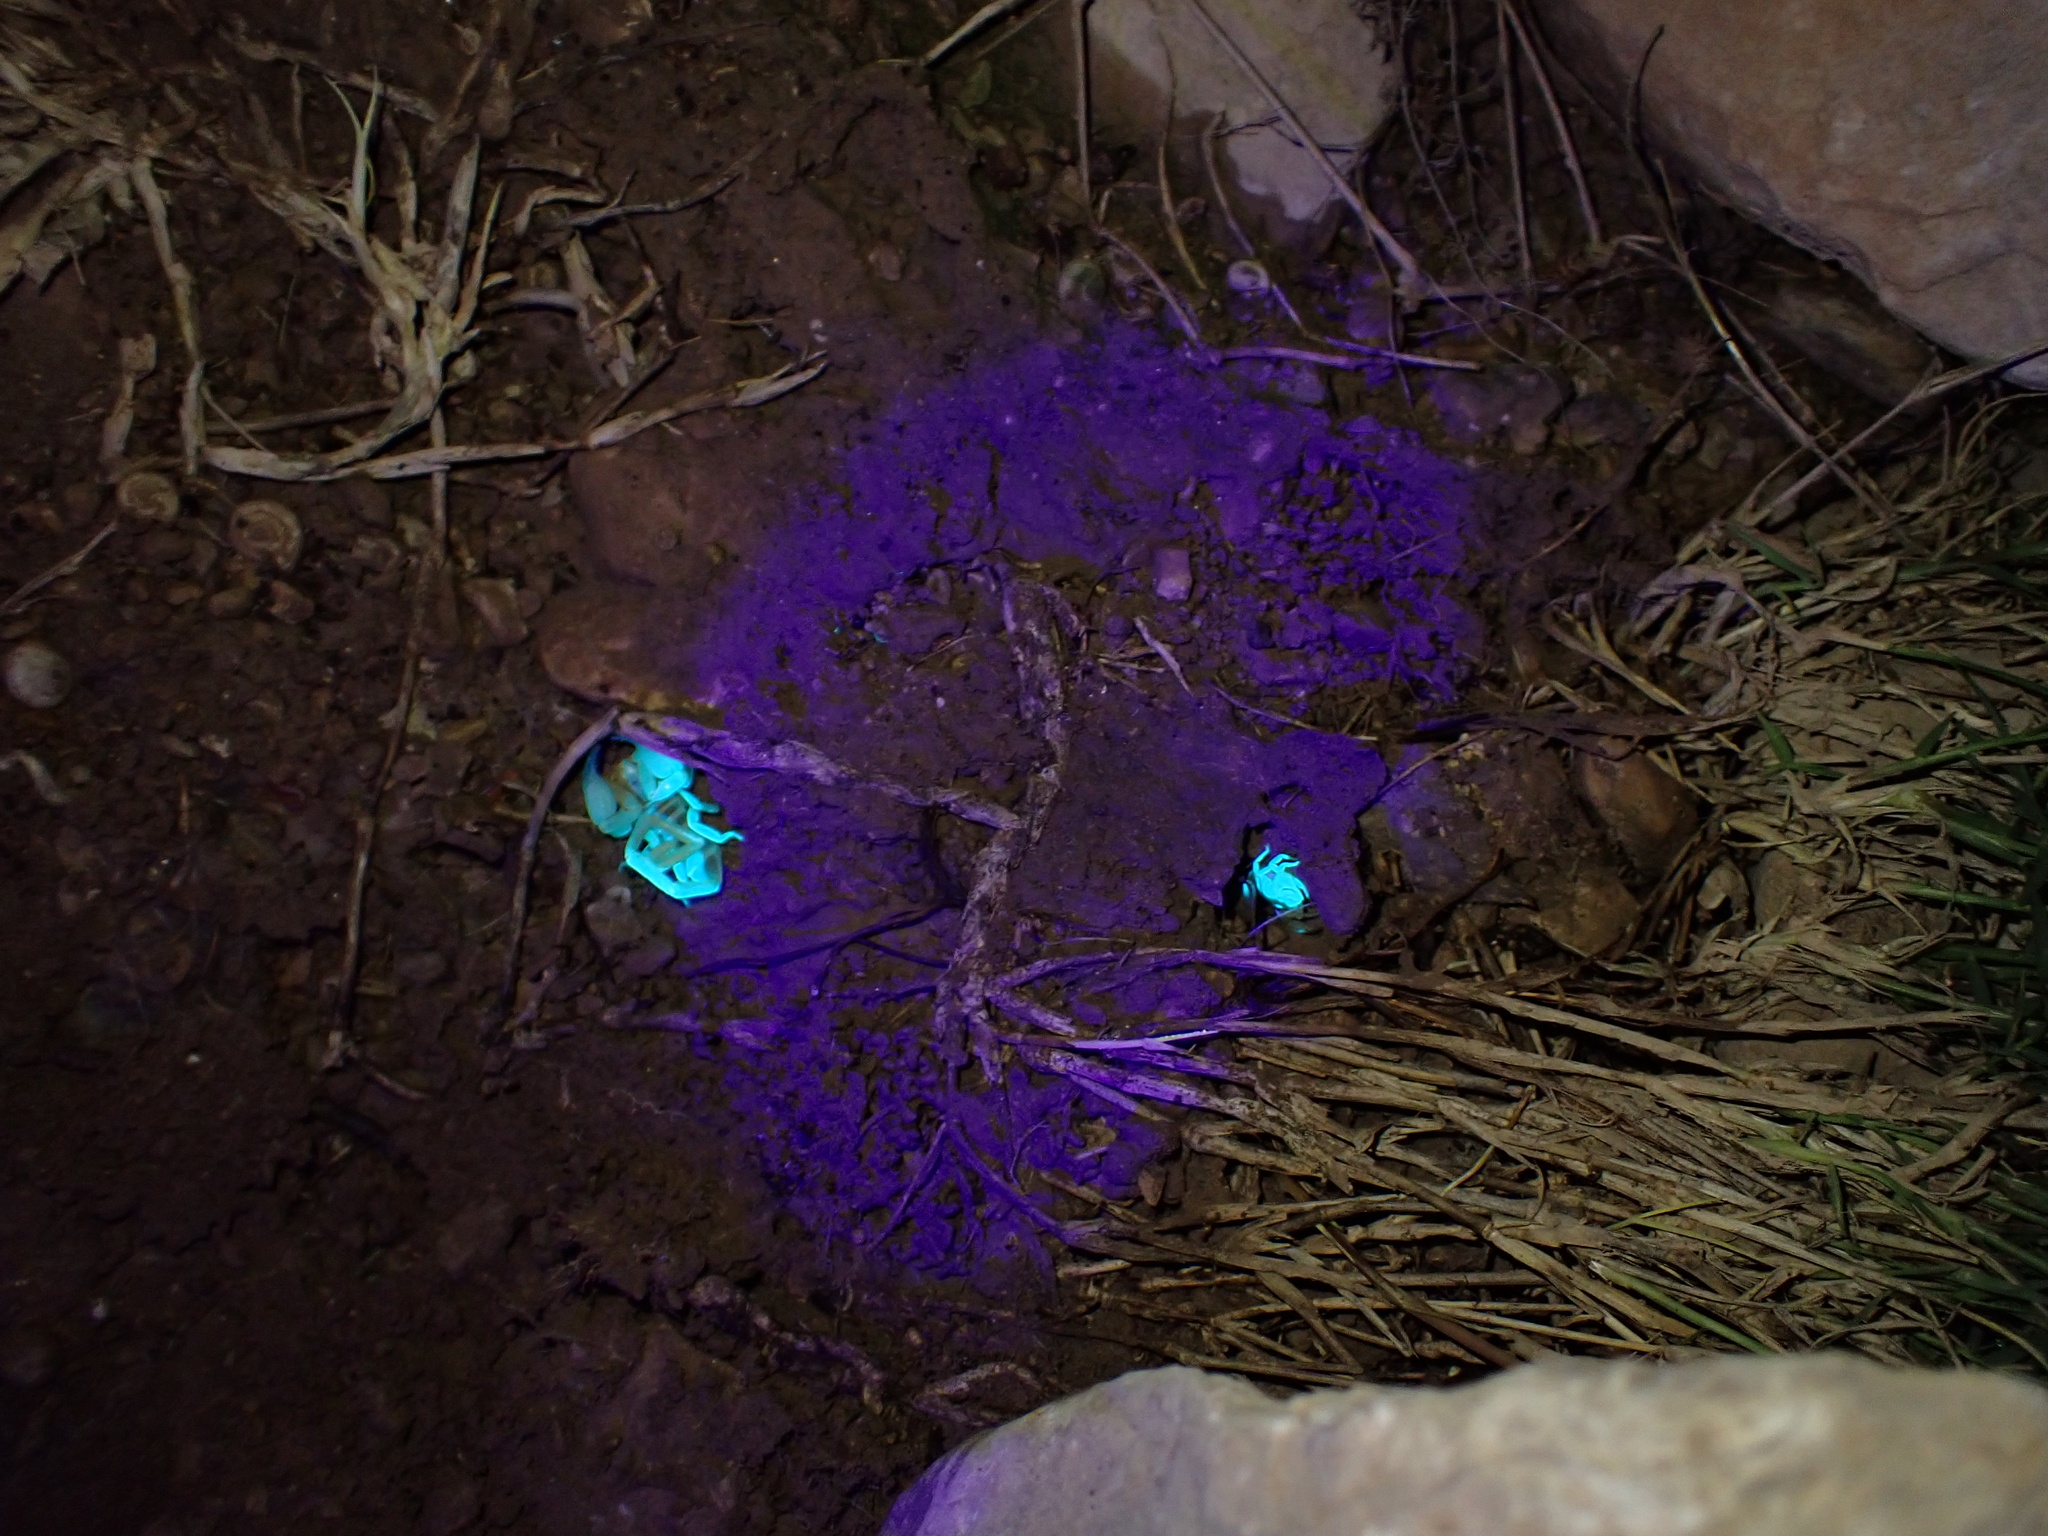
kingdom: Animalia
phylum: Arthropoda
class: Arachnida
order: Scorpiones
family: Buthidae
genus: Razianus
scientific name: Razianus zarudnyi
